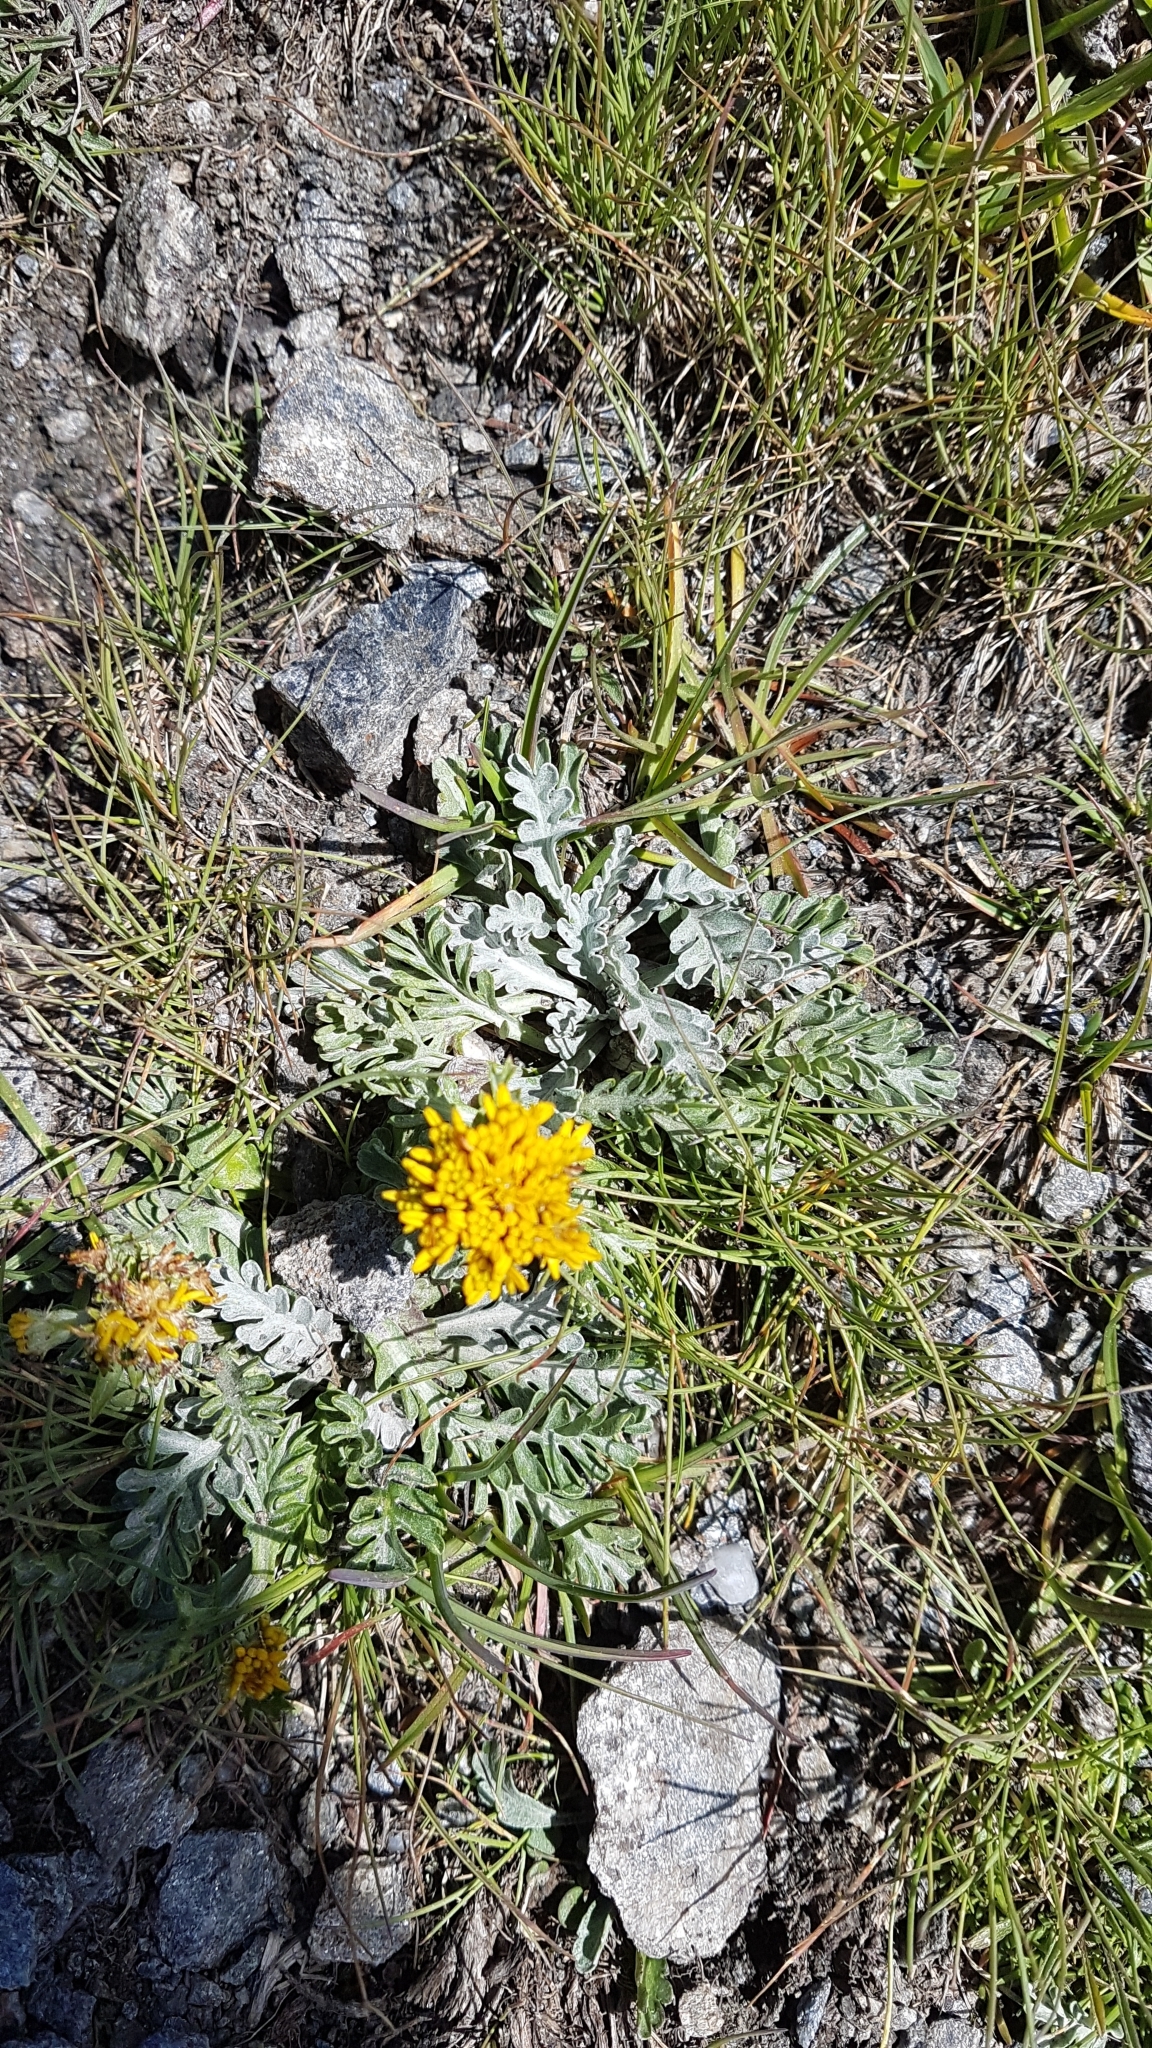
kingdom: Plantae
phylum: Tracheophyta
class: Magnoliopsida
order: Asterales
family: Asteraceae
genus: Jacobaea
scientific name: Jacobaea incana
